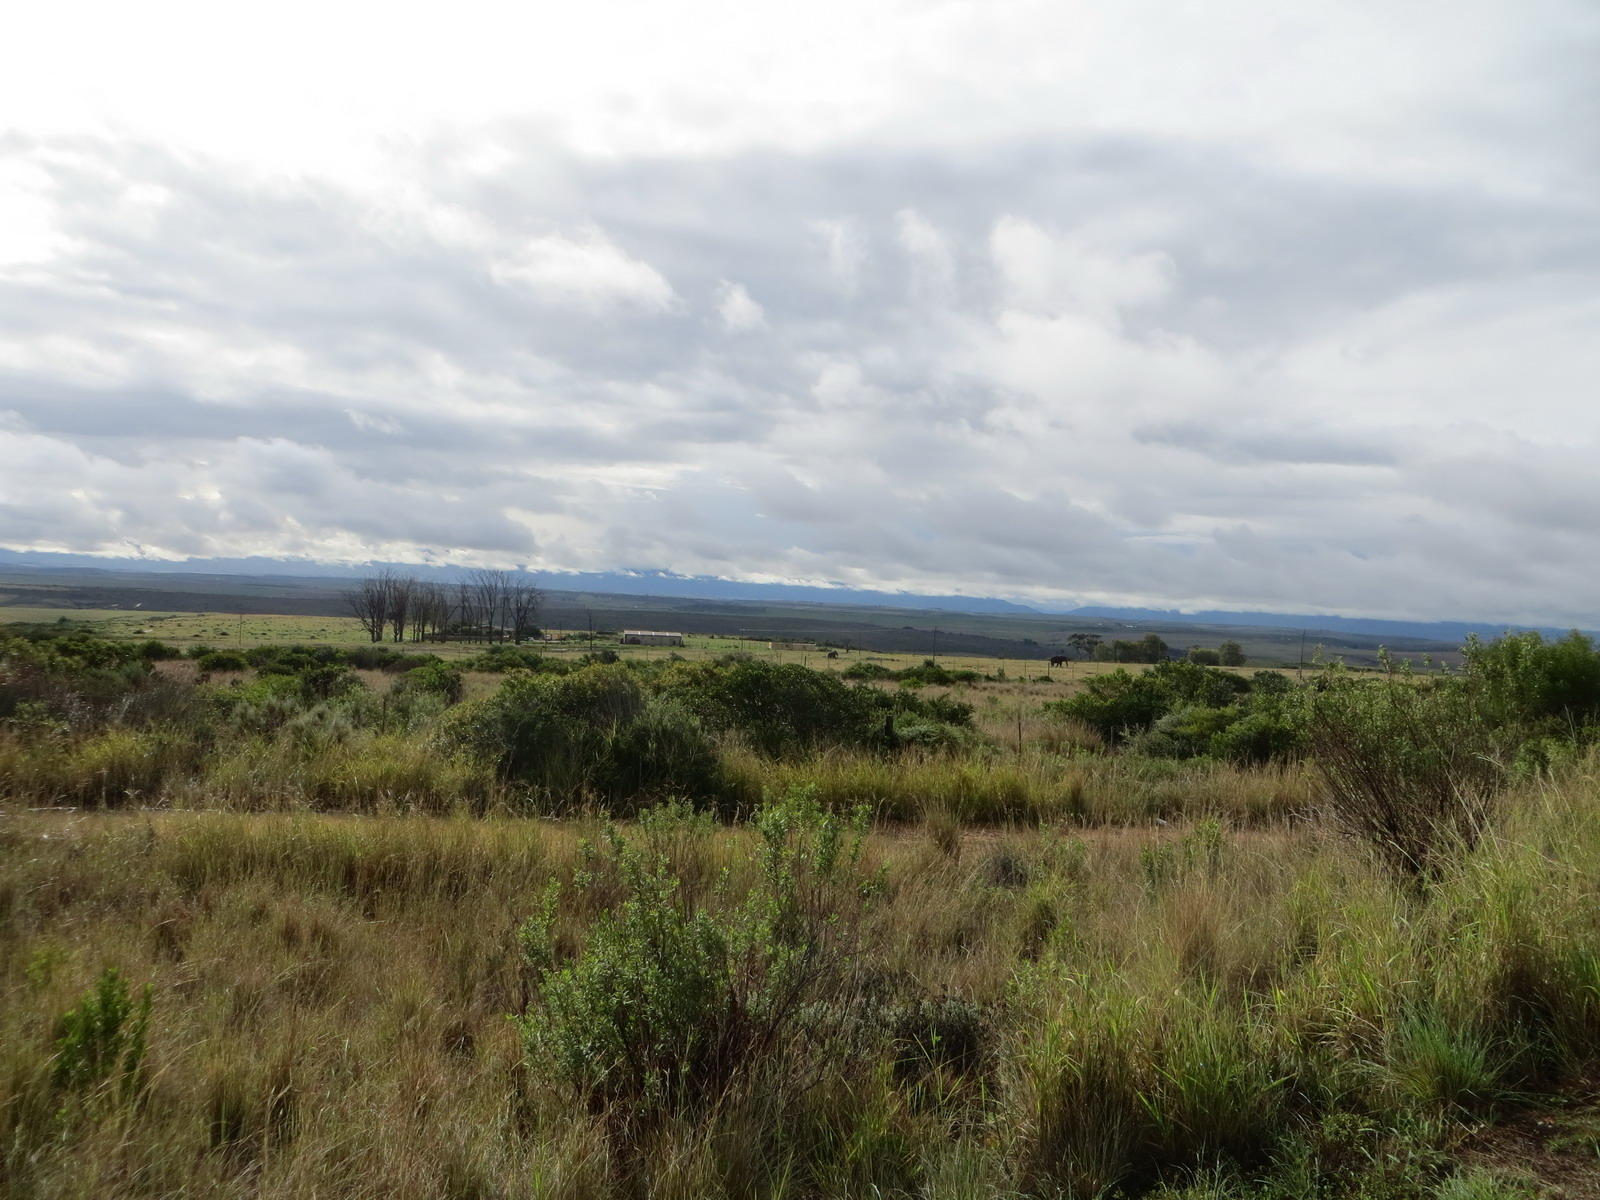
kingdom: Animalia
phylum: Chordata
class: Mammalia
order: Proboscidea
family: Elephantidae
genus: Loxodonta
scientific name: Loxodonta africana
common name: African elephant
